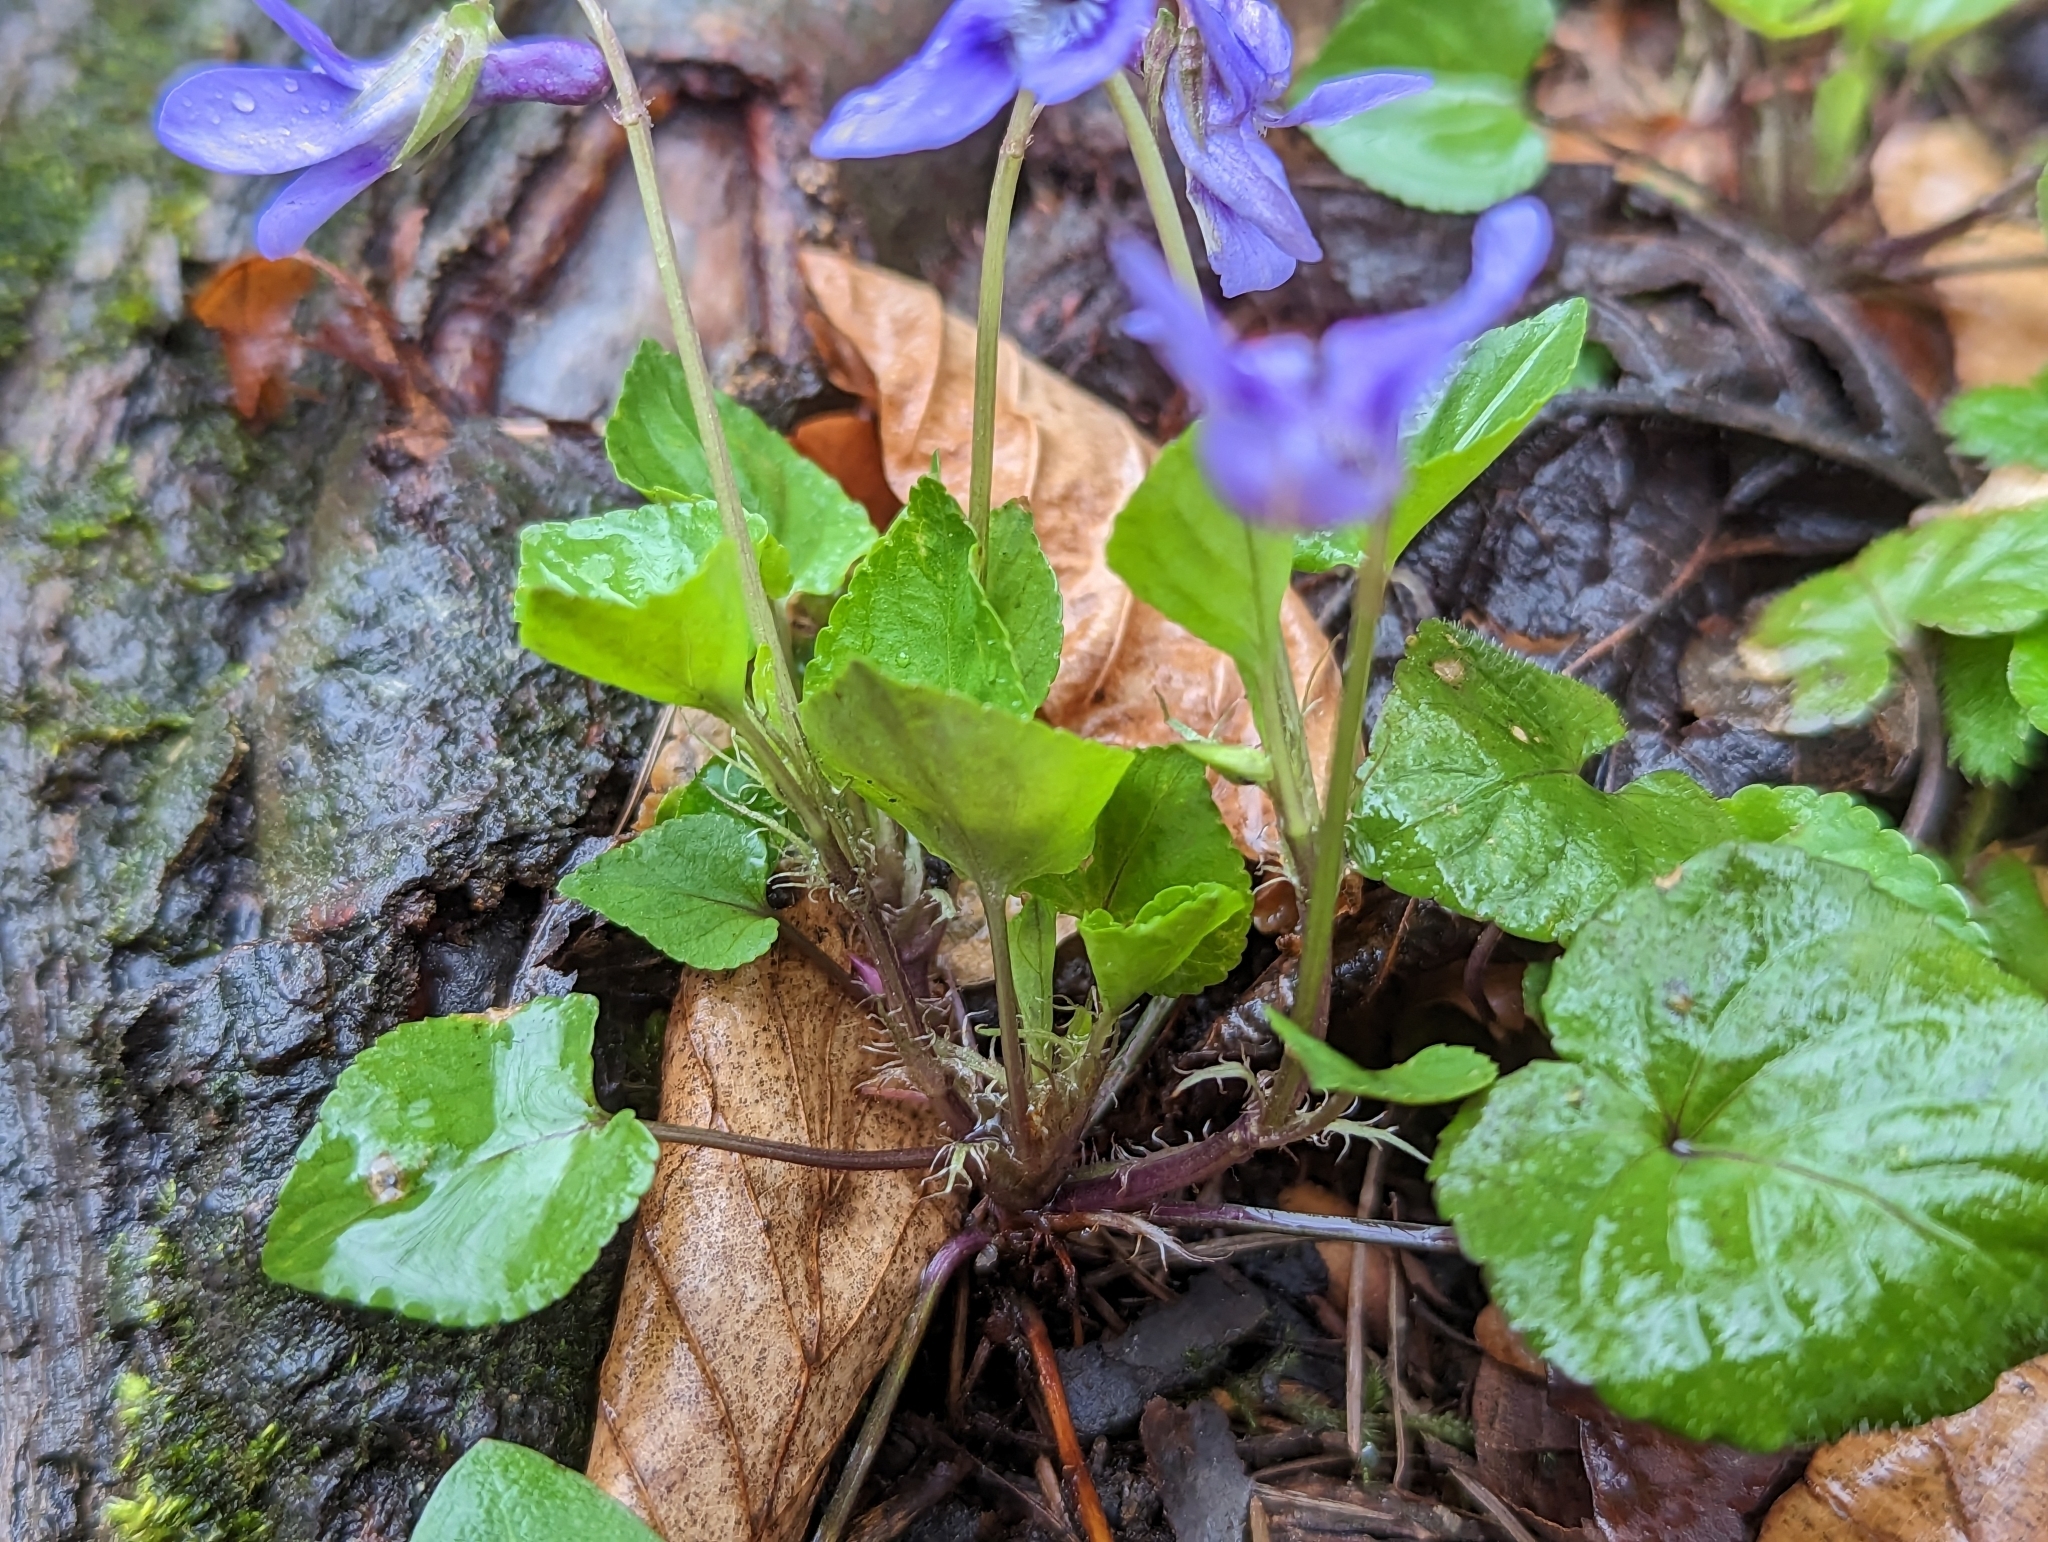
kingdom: Plantae
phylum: Tracheophyta
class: Magnoliopsida
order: Malpighiales
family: Violaceae
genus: Viola
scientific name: Viola reichenbachiana
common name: Early dog-violet
